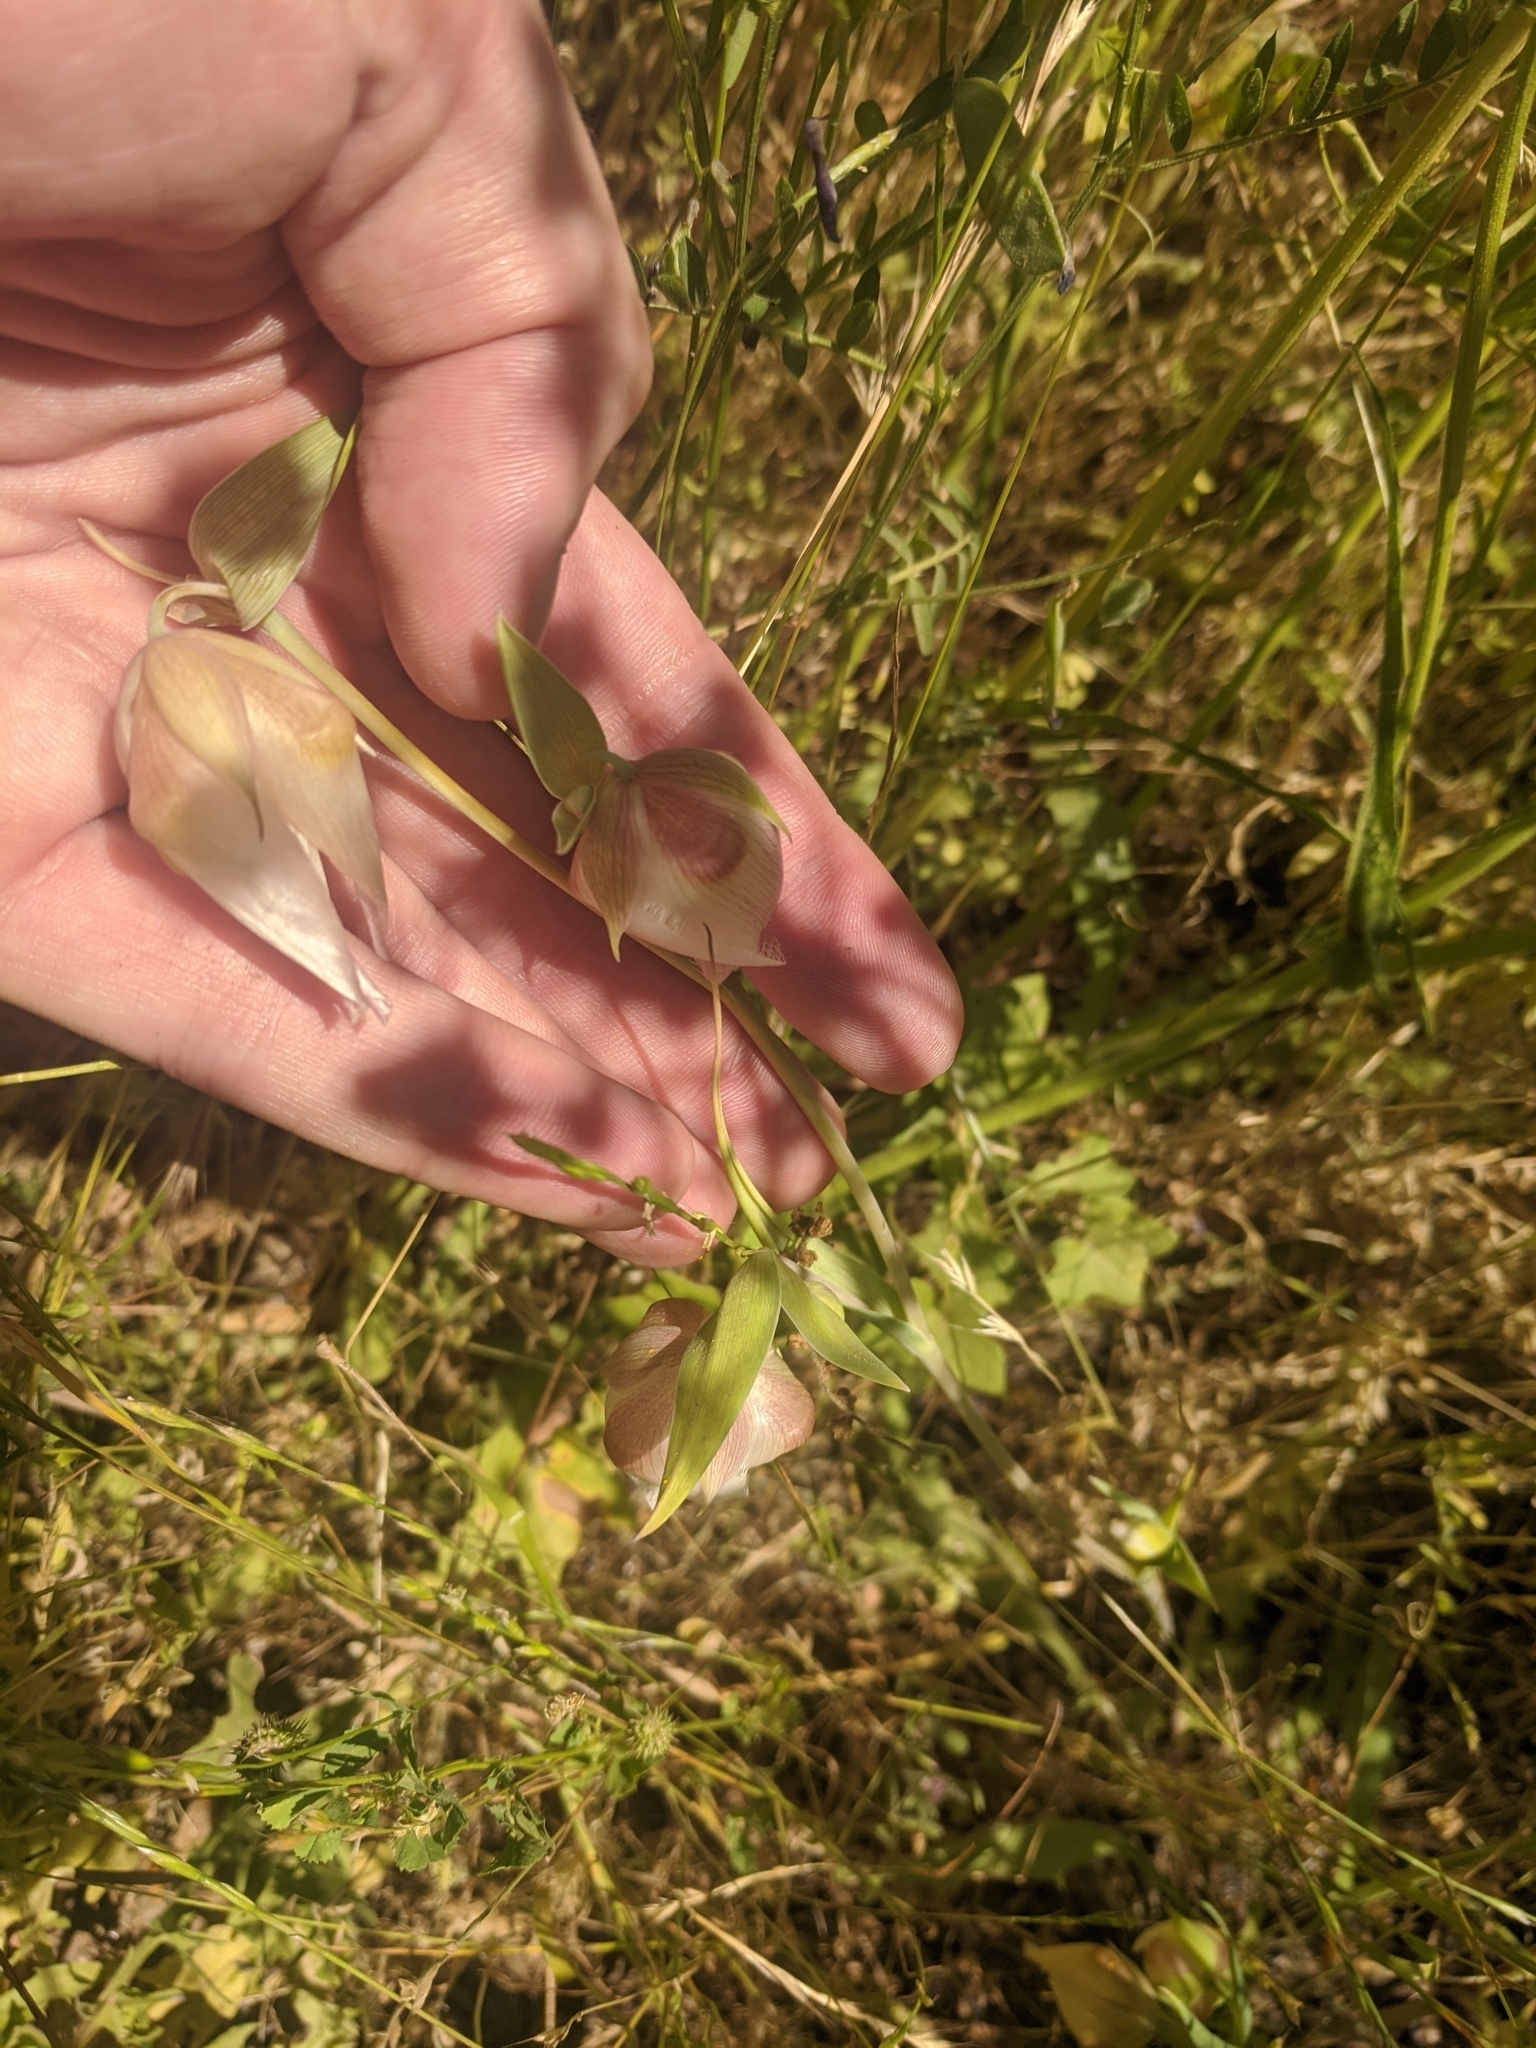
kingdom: Plantae
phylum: Tracheophyta
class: Liliopsida
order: Liliales
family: Liliaceae
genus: Calochortus
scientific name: Calochortus albus
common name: Fairy-lantern
